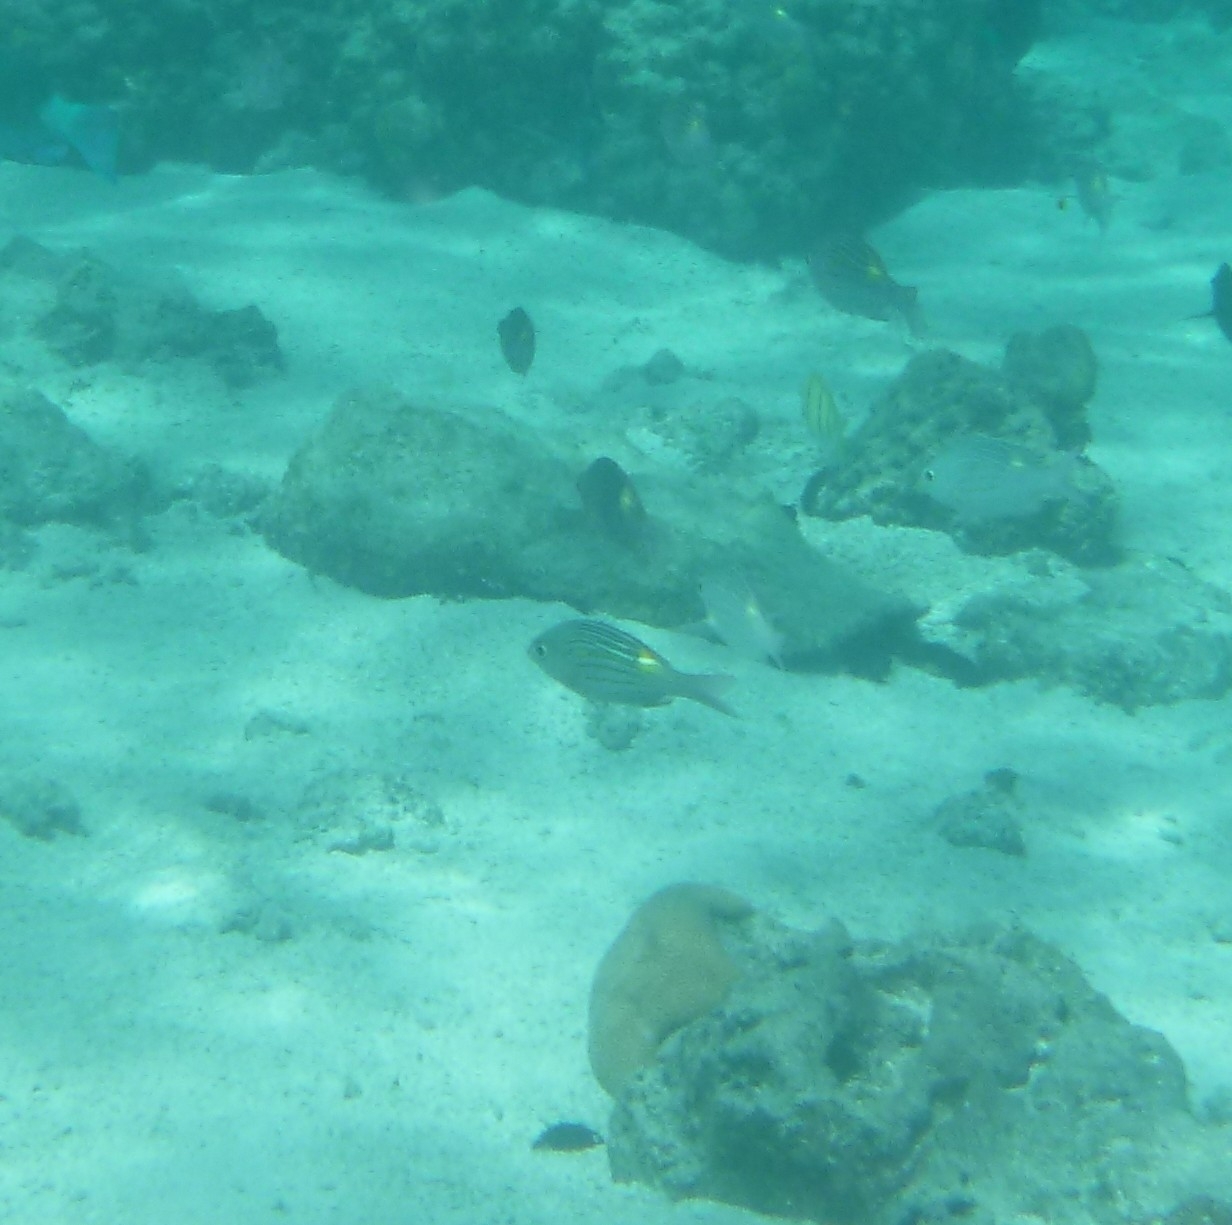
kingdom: Animalia
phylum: Chordata
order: Perciformes
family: Lethrinidae
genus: Gnathodentex
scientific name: Gnathodentex aureolineatus
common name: Gold-lined sea bream
